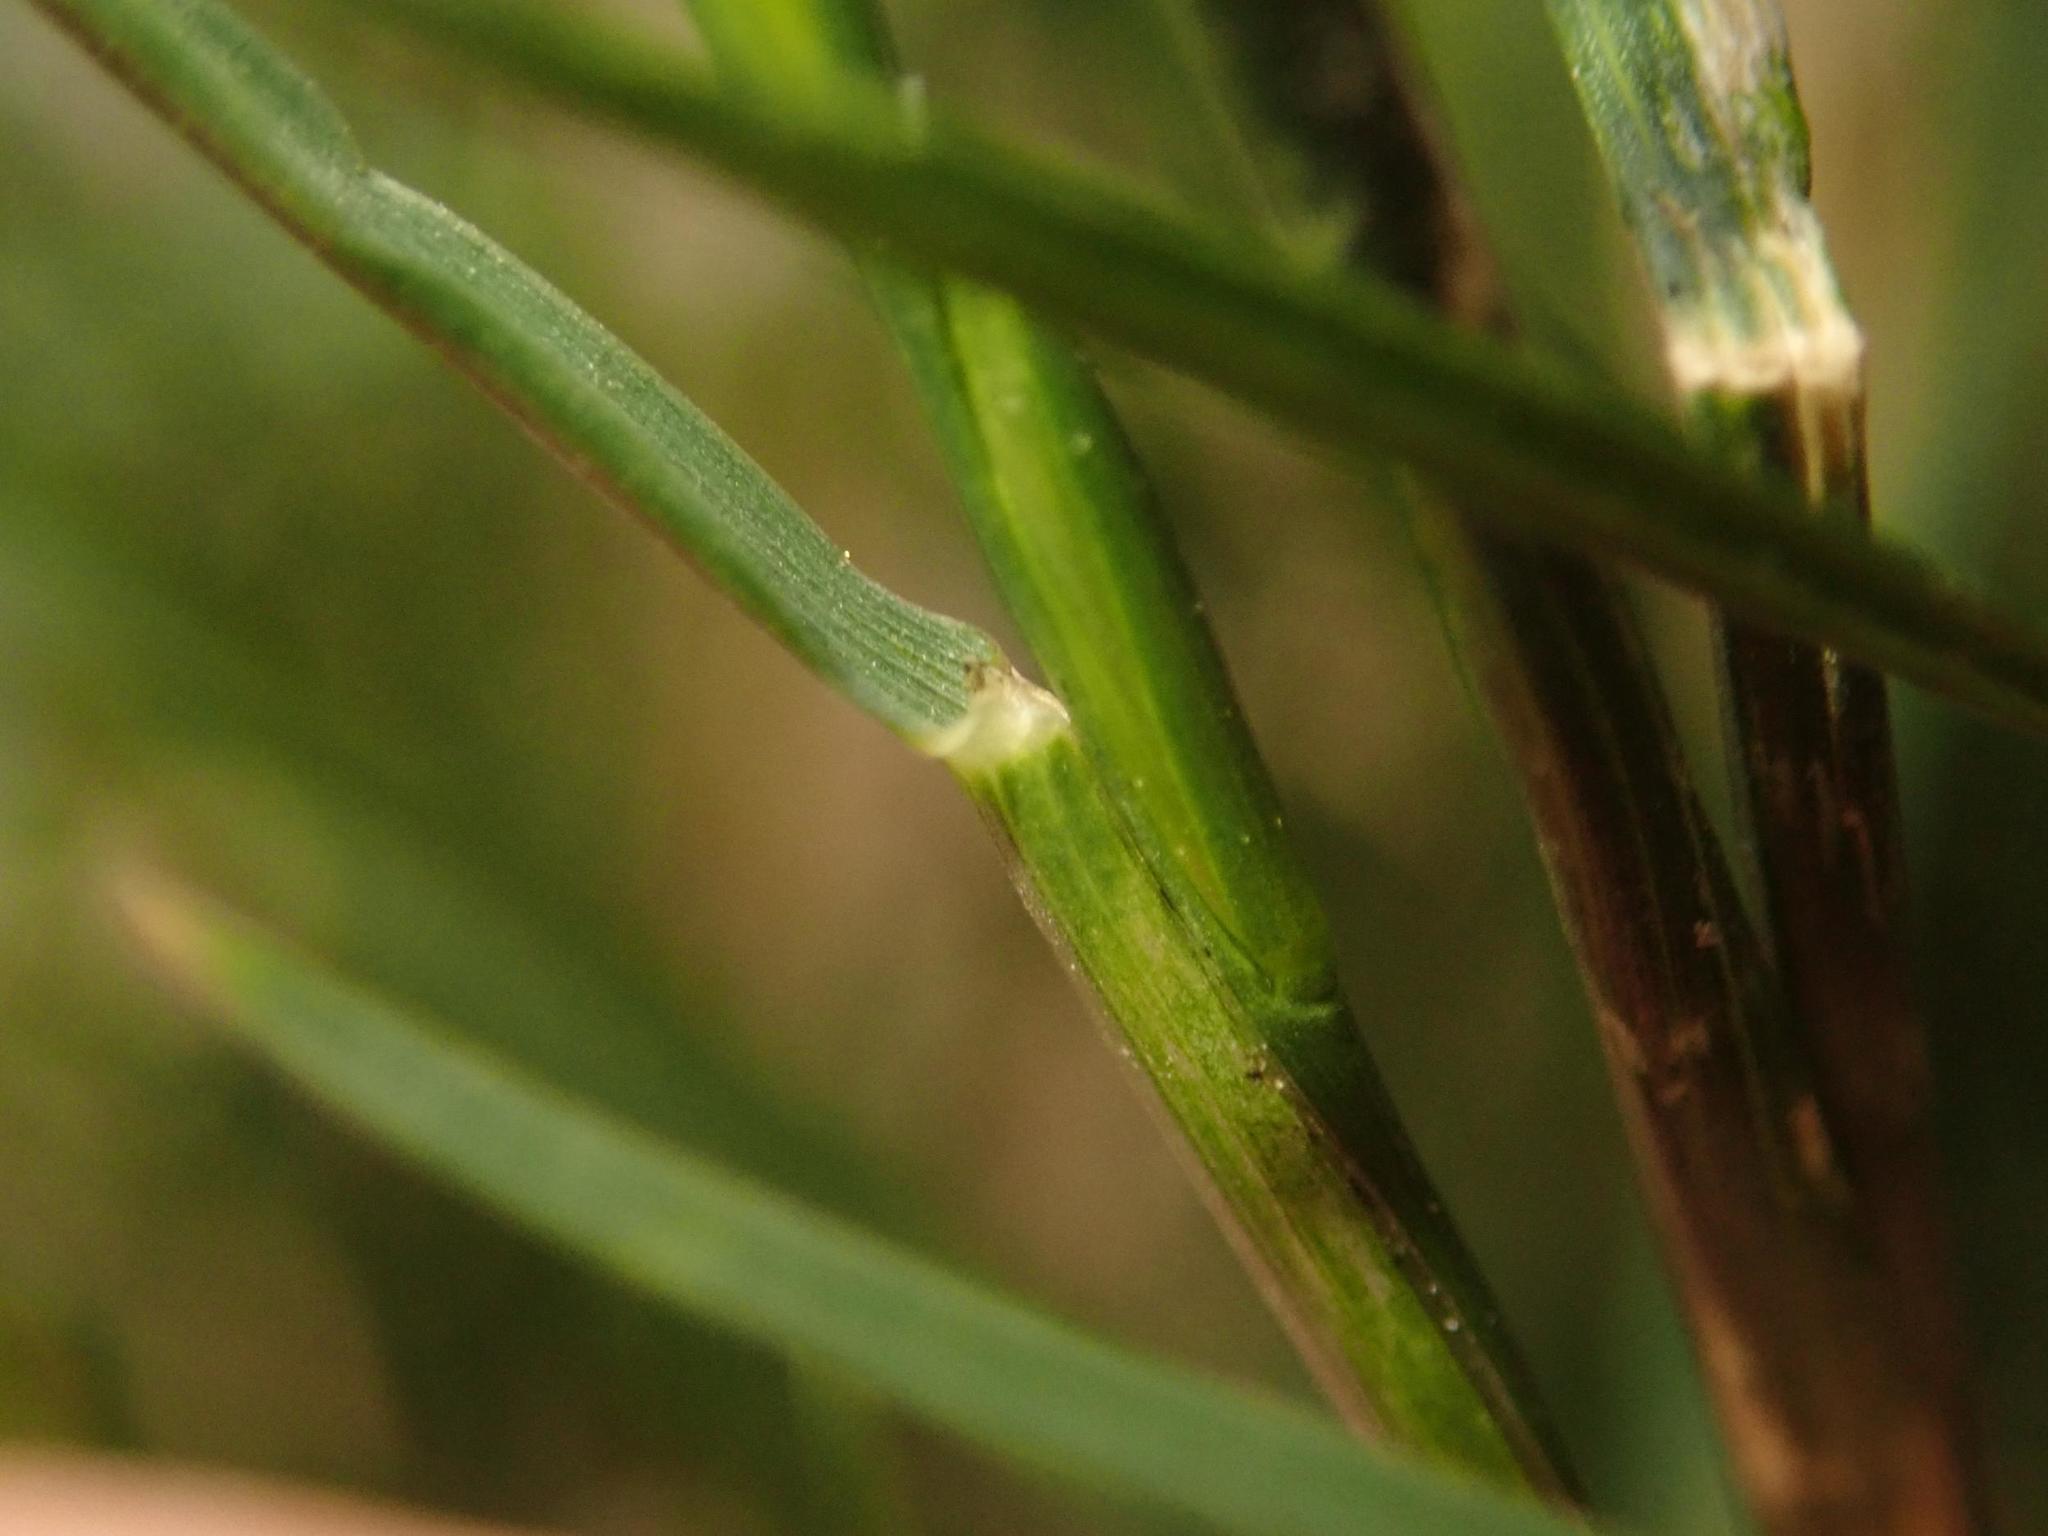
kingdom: Plantae
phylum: Tracheophyta
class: Liliopsida
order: Poales
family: Poaceae
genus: Lolium
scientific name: Lolium perenne
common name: Perennial ryegrass
